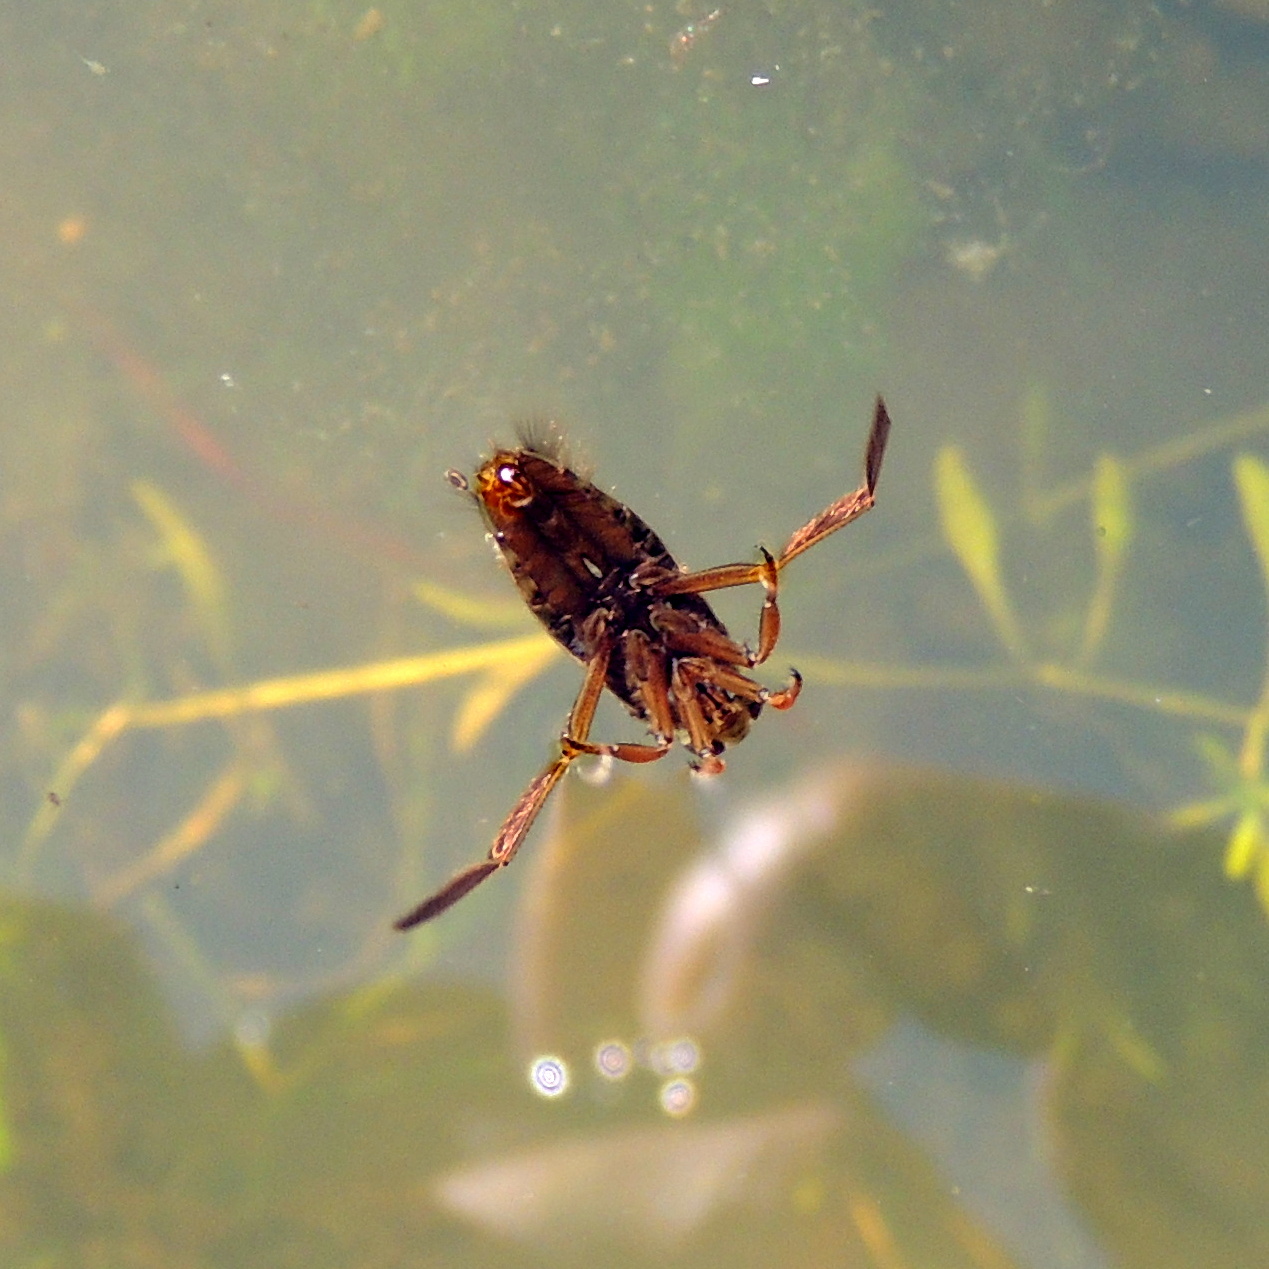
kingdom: Animalia
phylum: Arthropoda
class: Insecta
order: Hemiptera
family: Notonectidae
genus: Notonecta
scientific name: Notonecta
